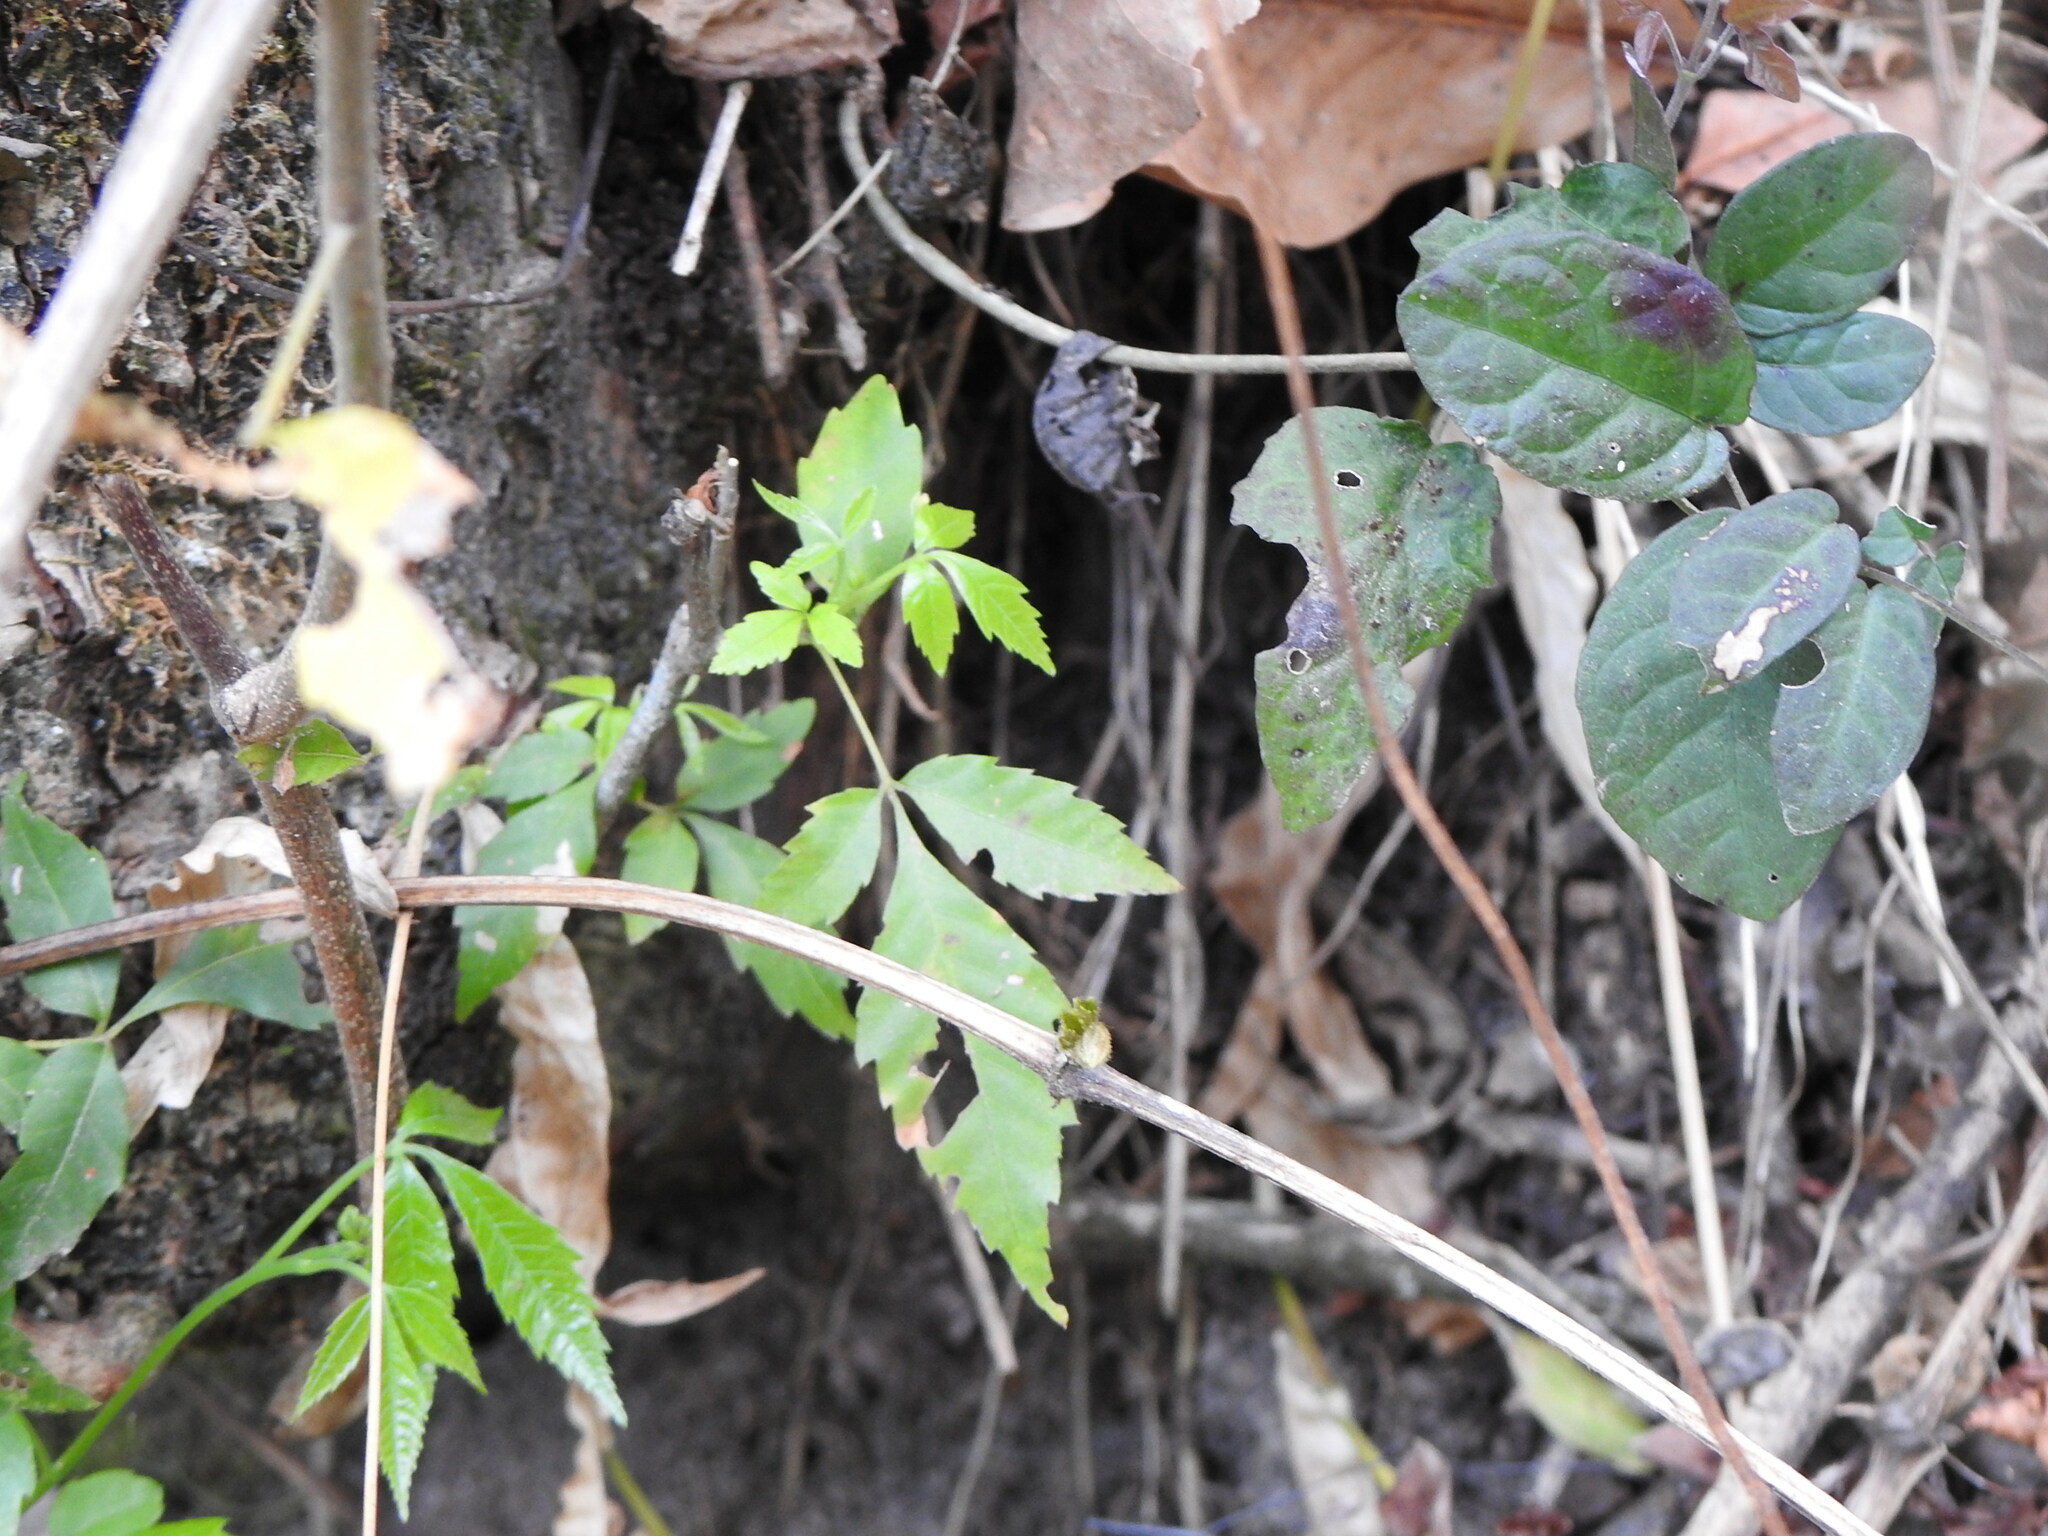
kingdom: Plantae
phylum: Tracheophyta
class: Magnoliopsida
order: Sapindales
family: Sapindaceae
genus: Allophylus
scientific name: Allophylus edulis
